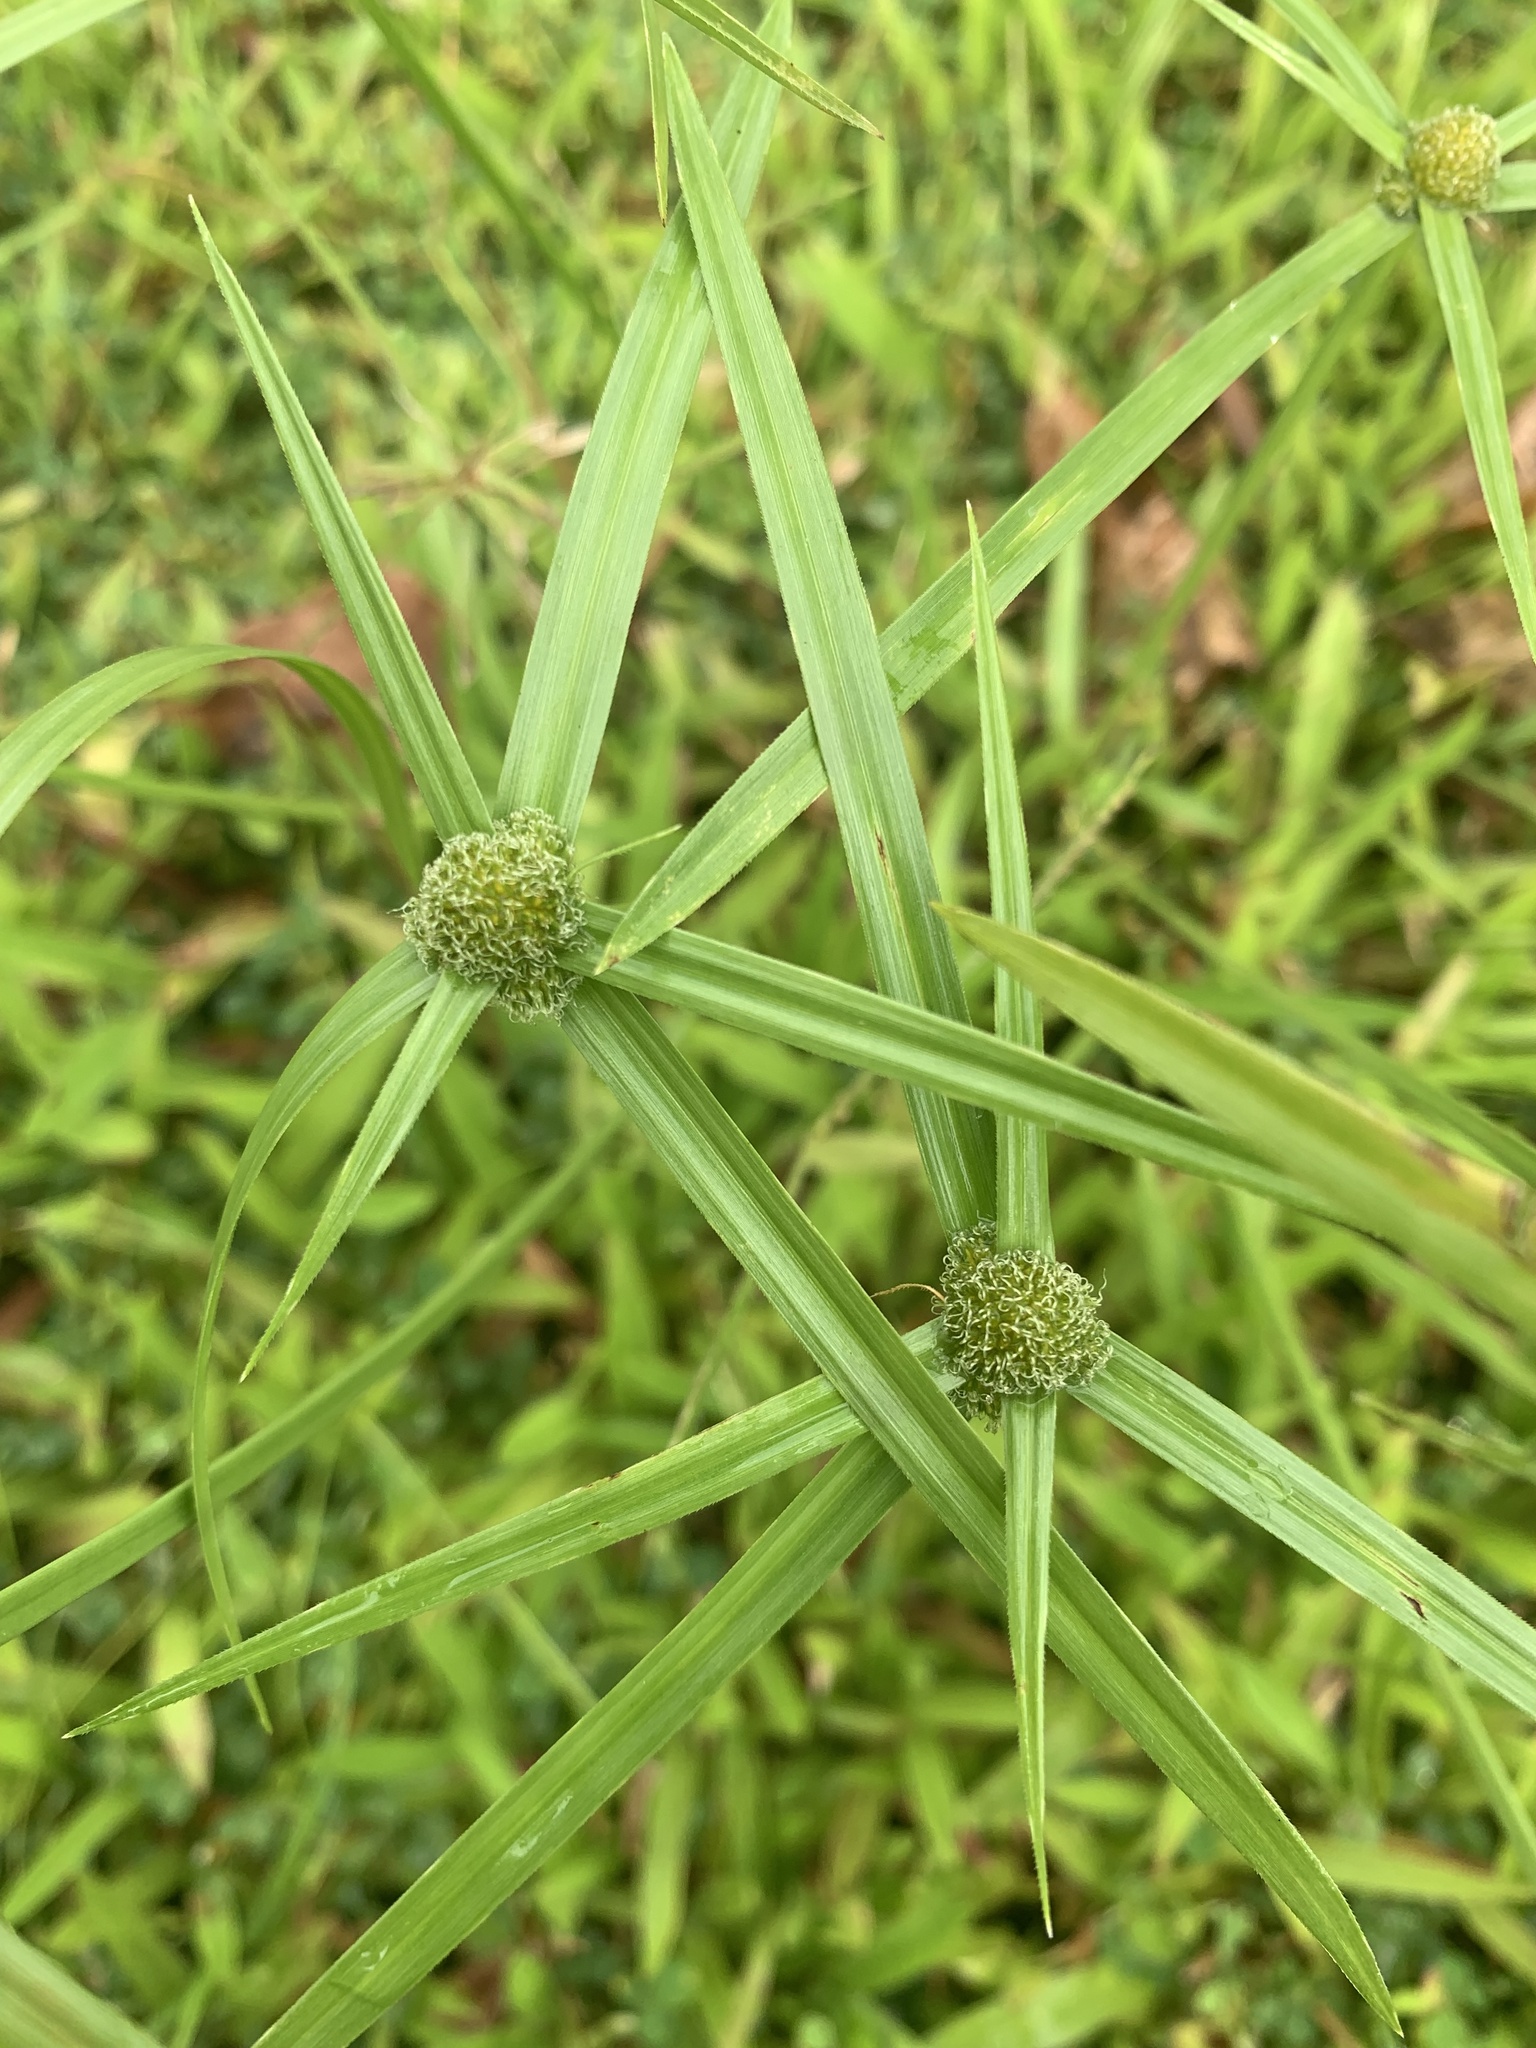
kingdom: Plantae
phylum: Tracheophyta
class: Liliopsida
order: Poales
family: Cyperaceae
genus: Cyperus
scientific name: Cyperus aromaticus
